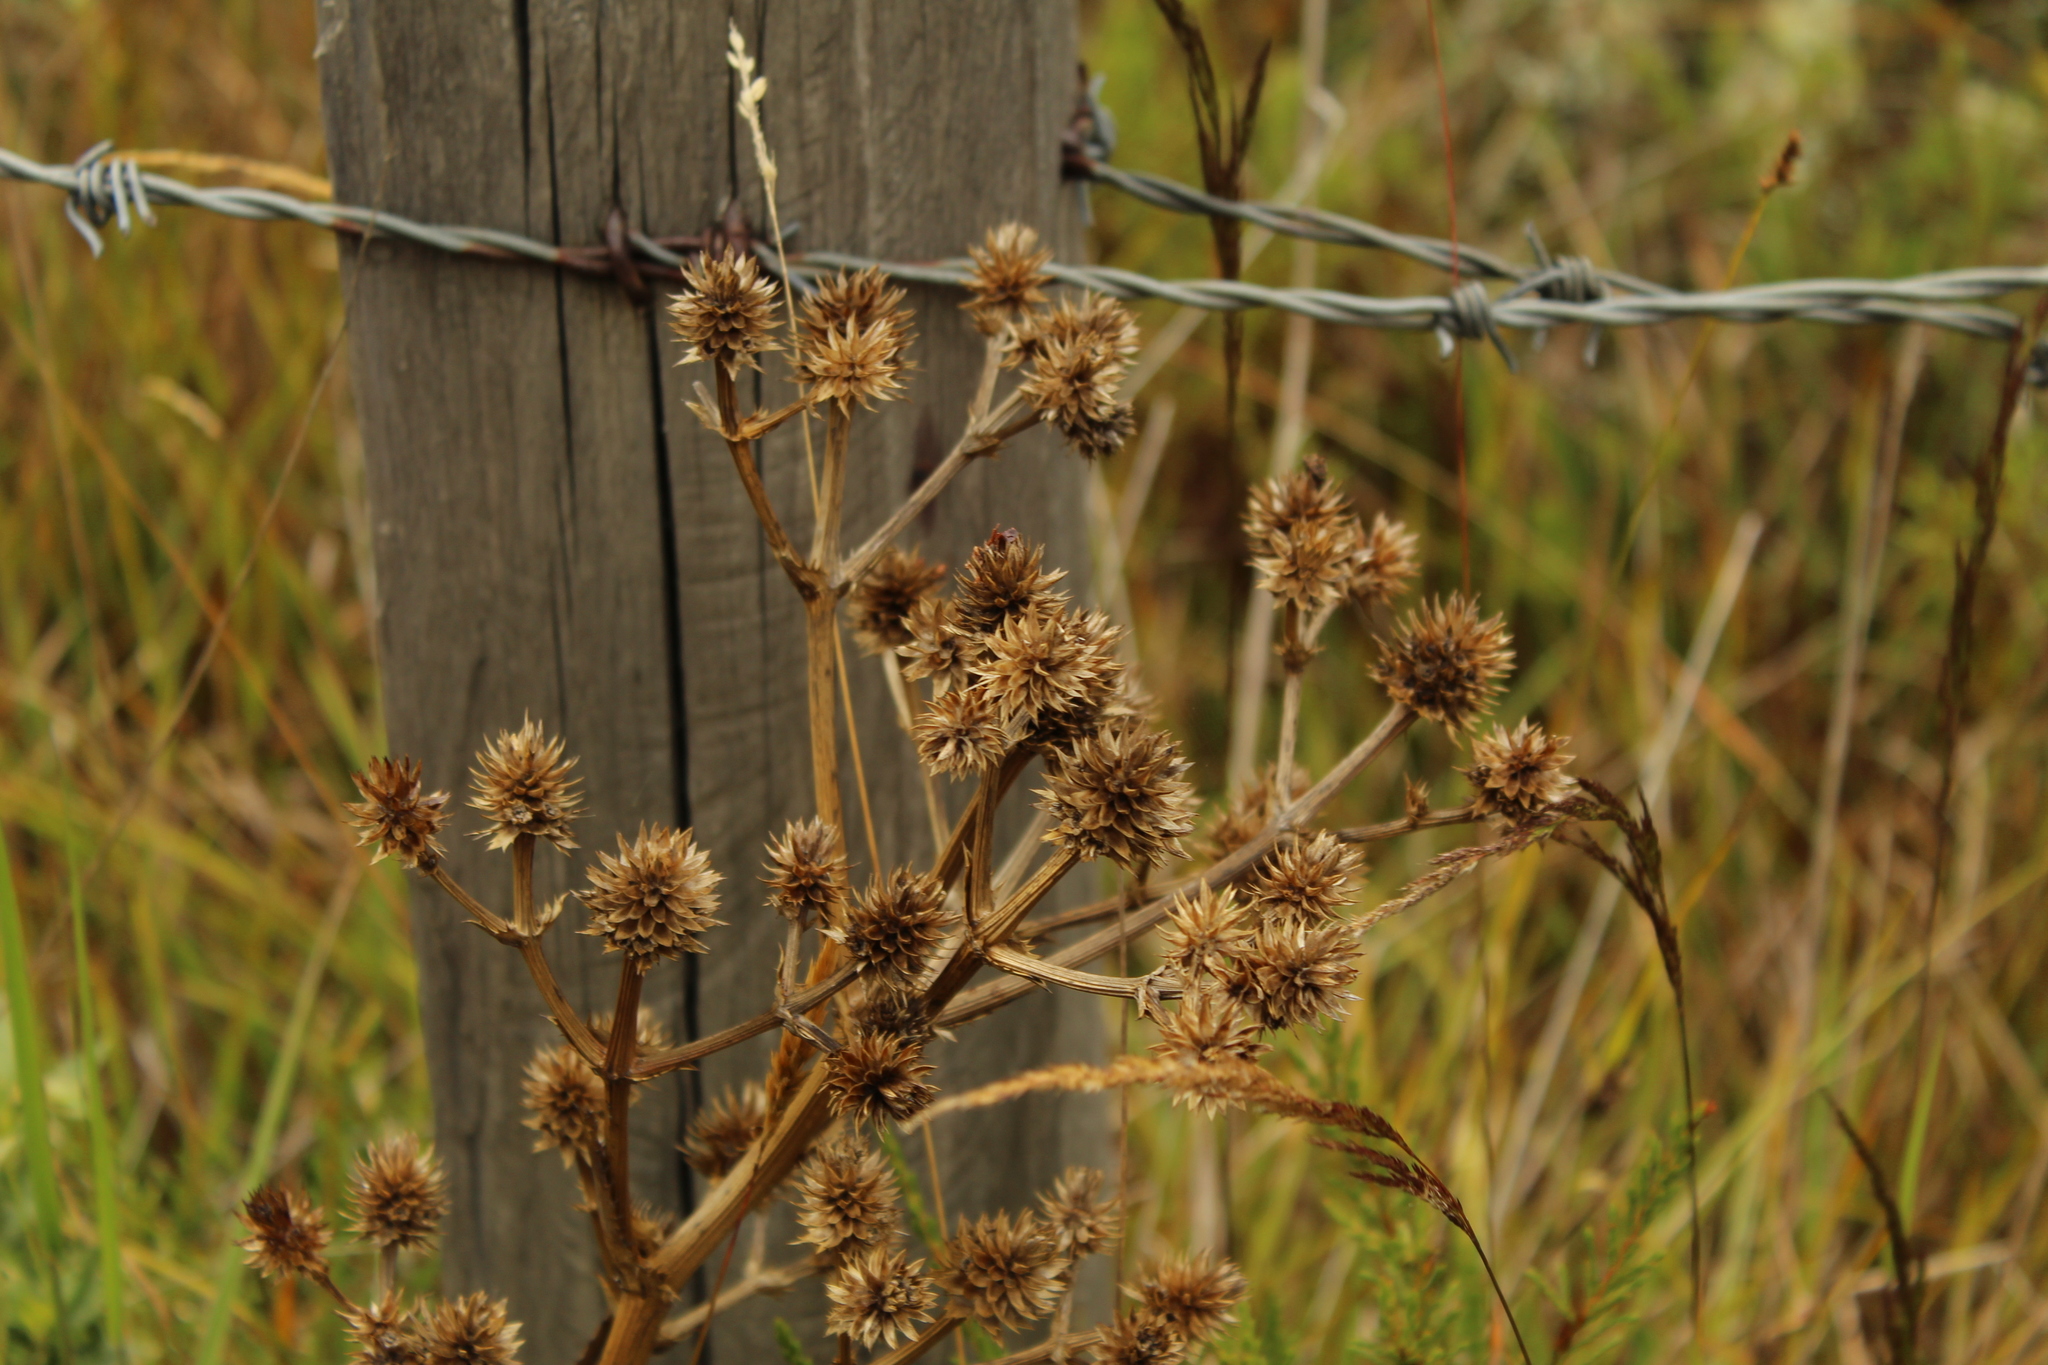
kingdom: Plantae
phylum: Tracheophyta
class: Magnoliopsida
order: Apiales
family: Apiaceae
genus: Eryngium
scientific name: Eryngium humboldtii
